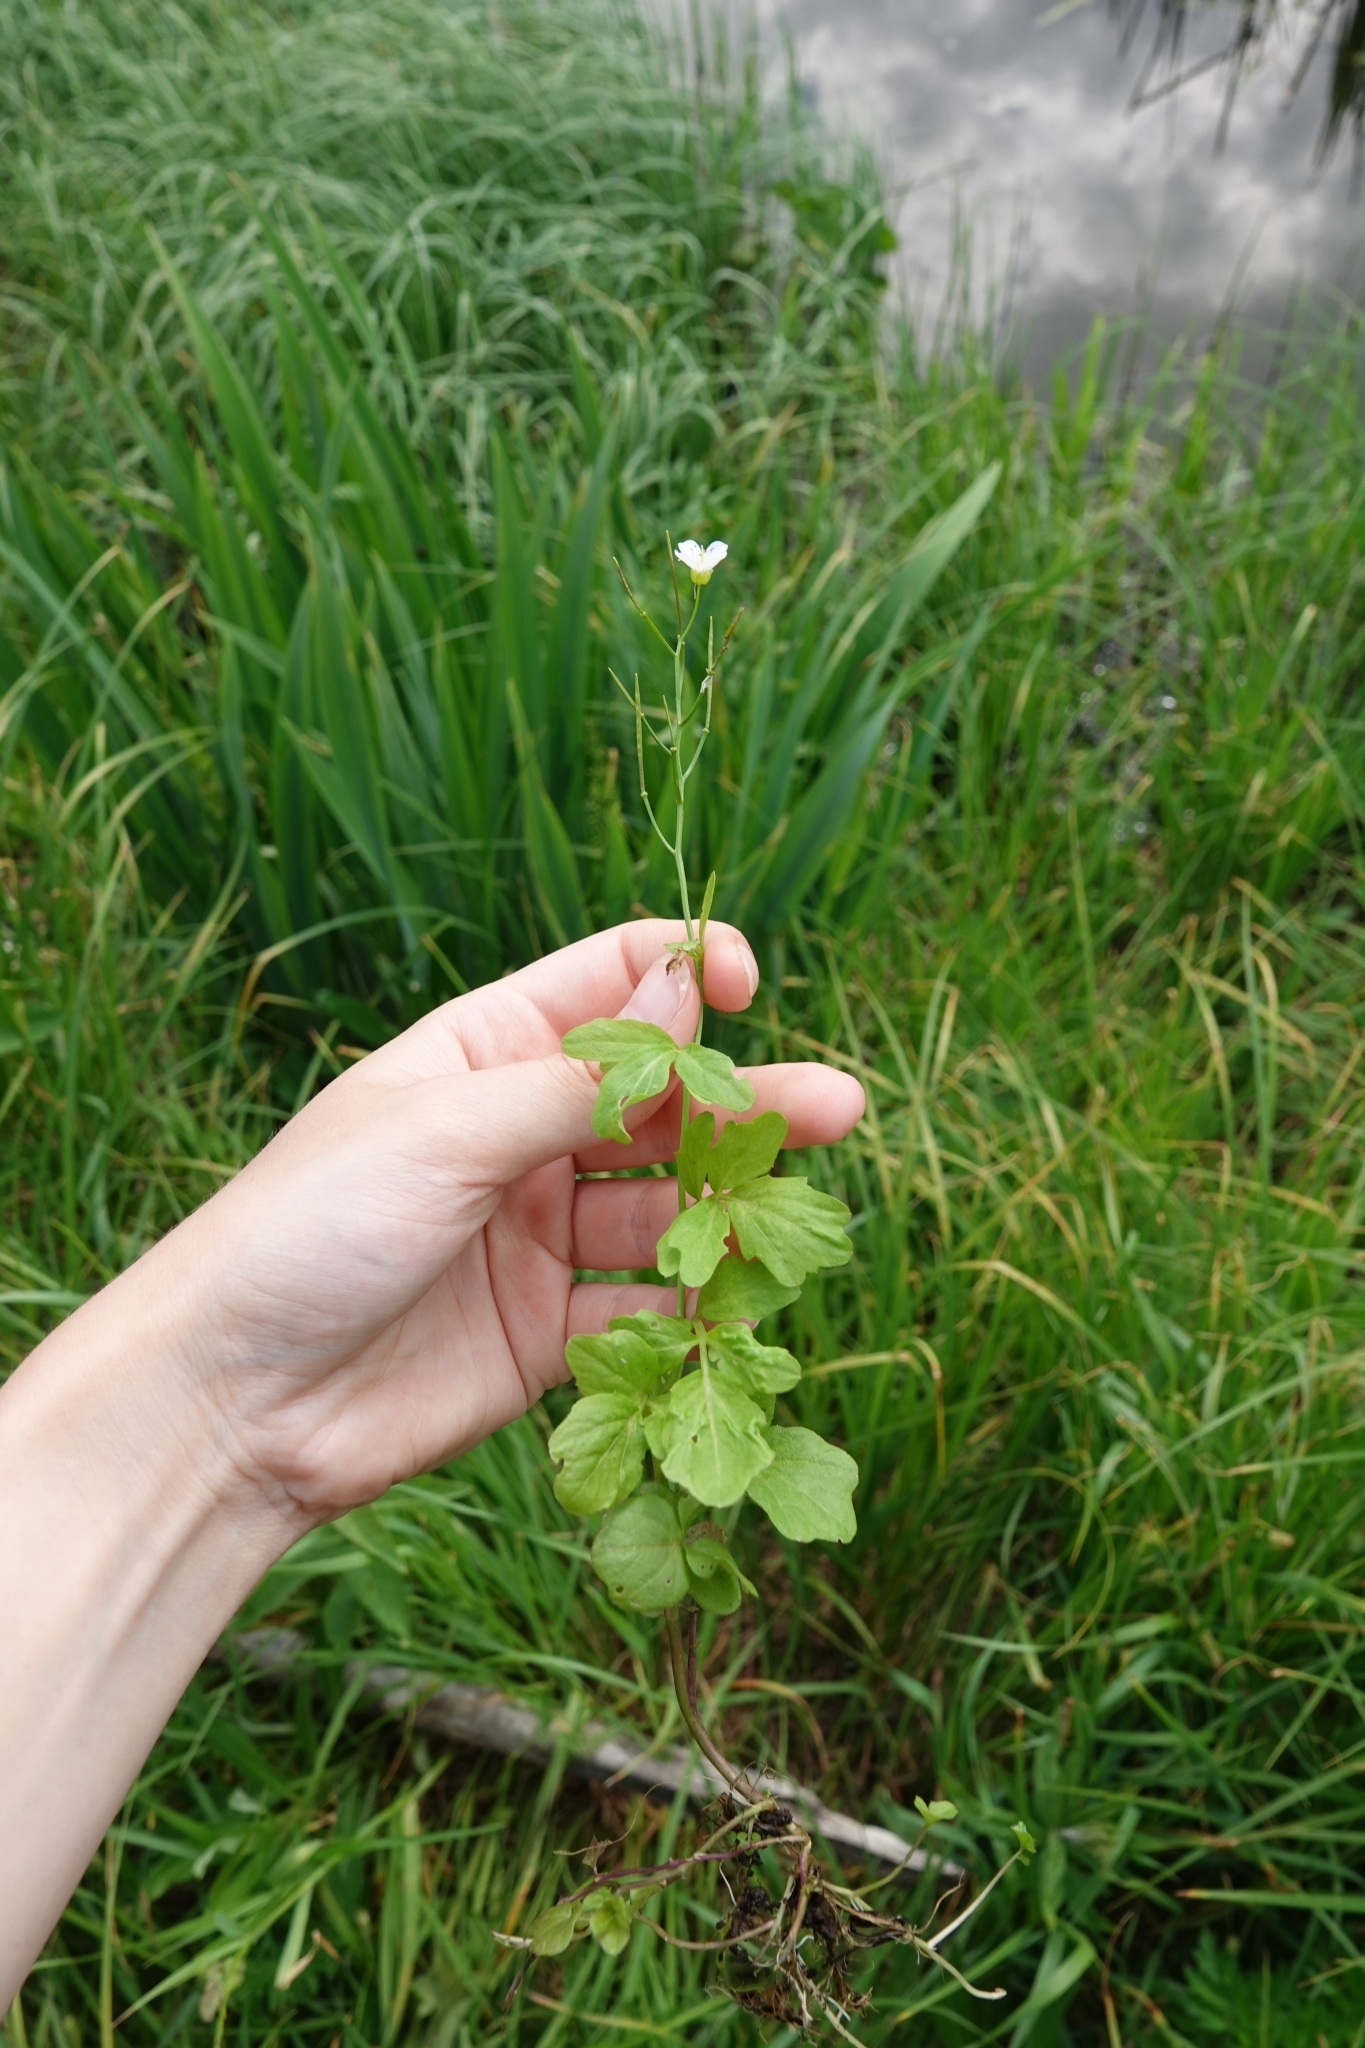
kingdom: Plantae
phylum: Tracheophyta
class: Magnoliopsida
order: Brassicales
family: Brassicaceae
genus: Cardamine
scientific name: Cardamine amara
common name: Large bitter-cress
